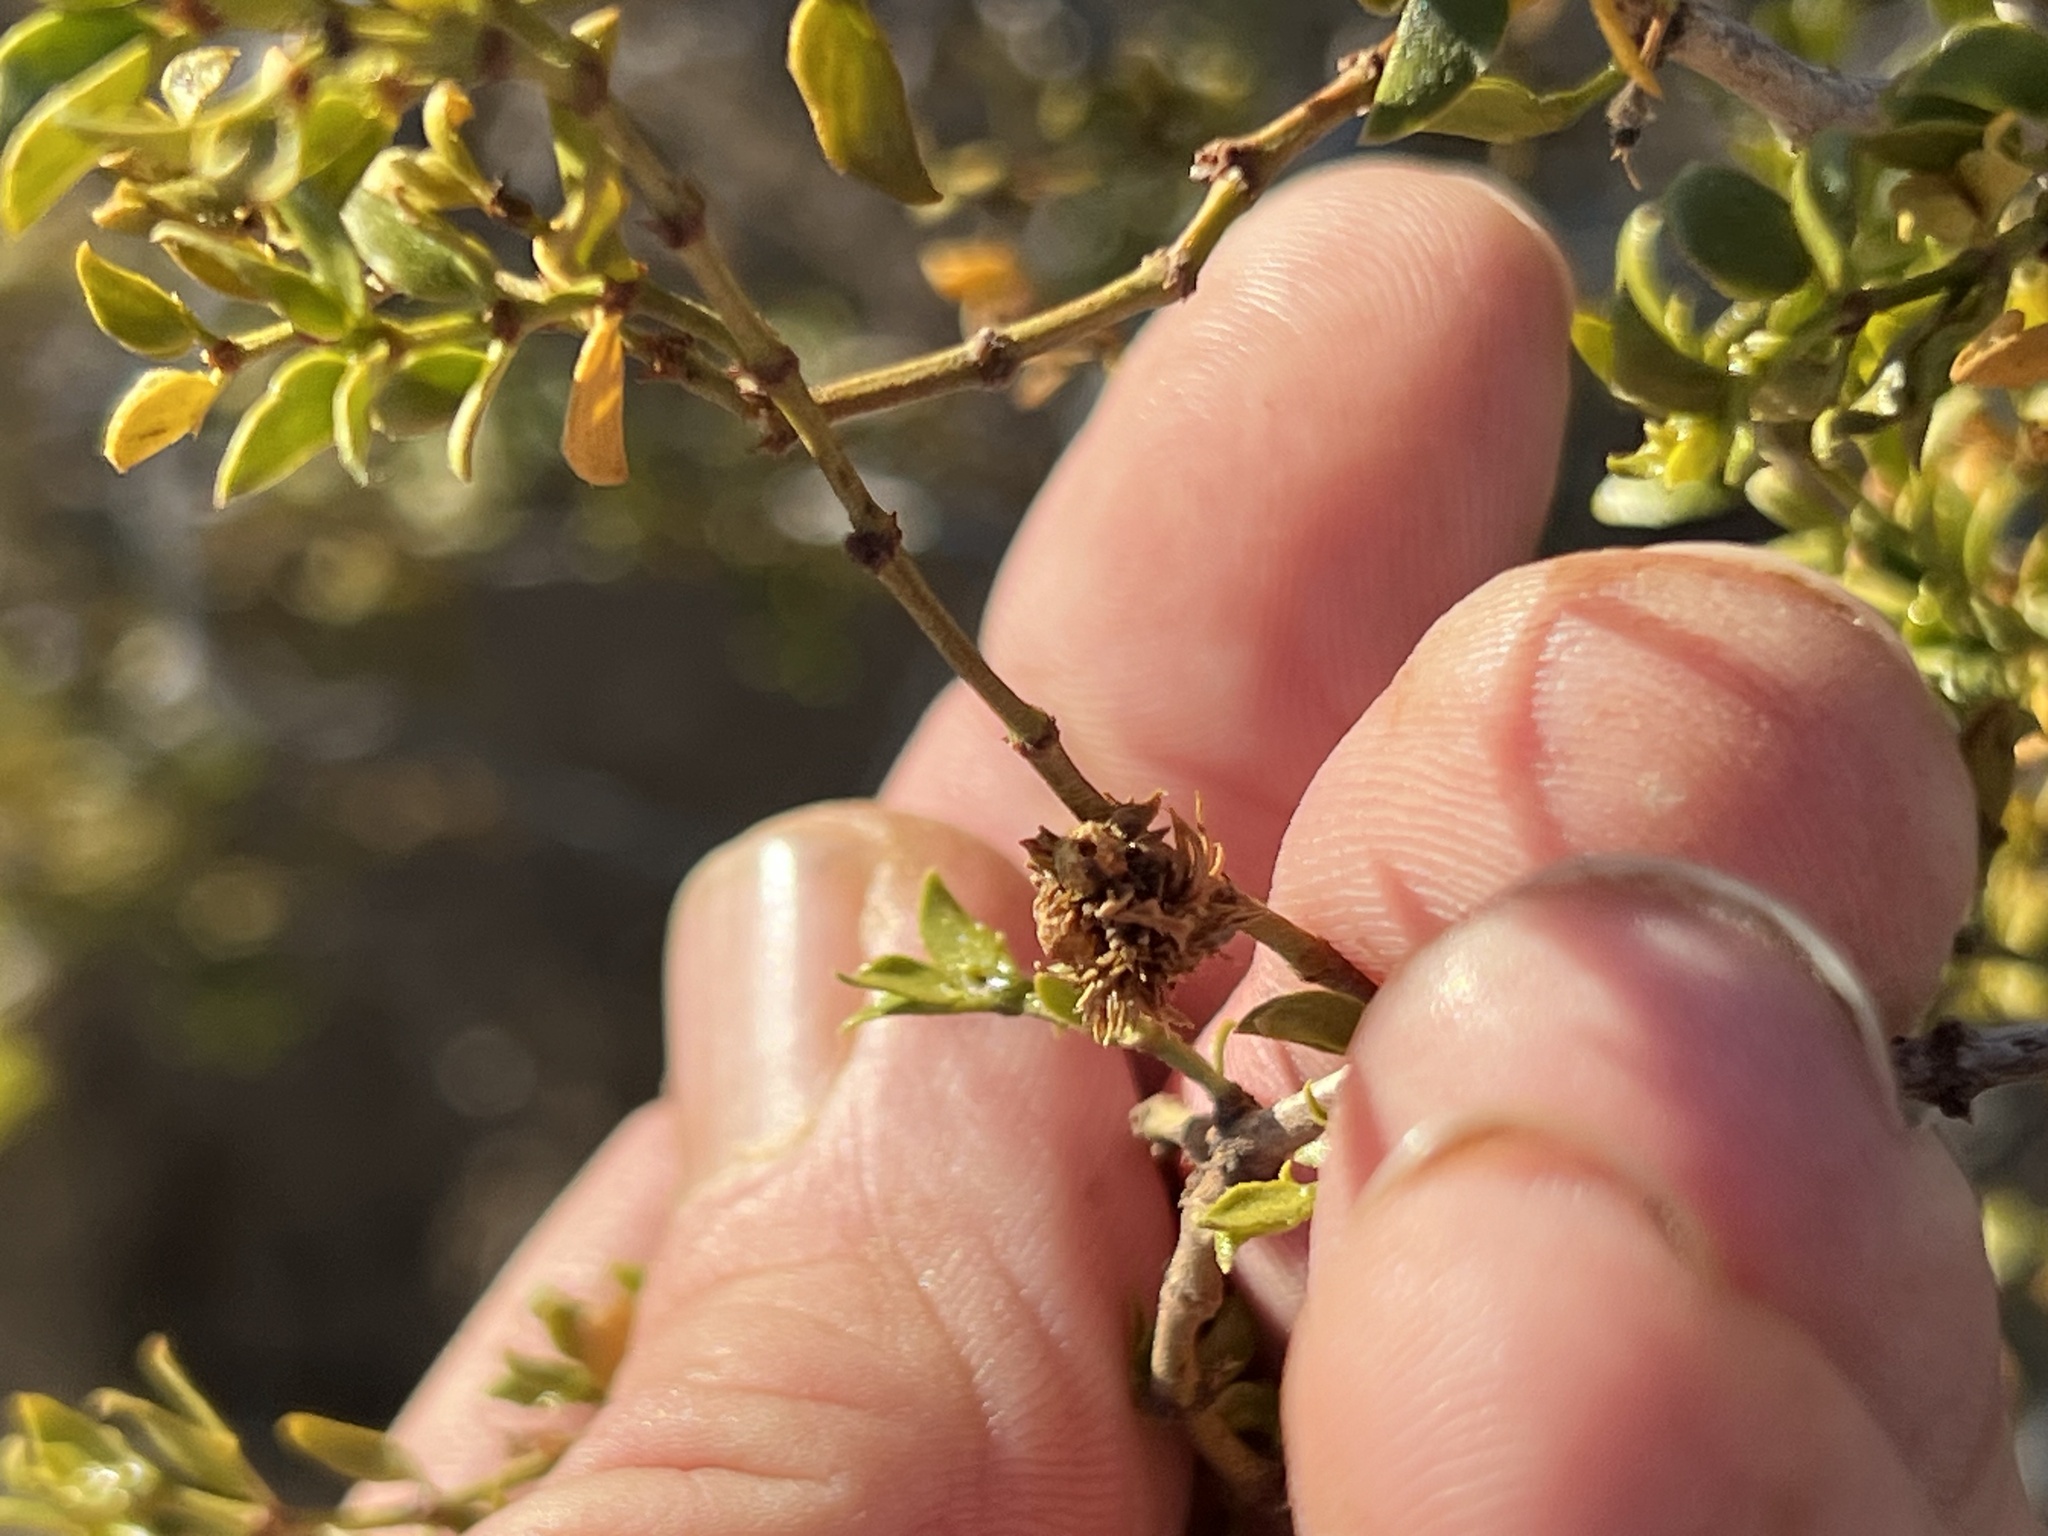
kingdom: Animalia
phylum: Arthropoda
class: Insecta
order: Diptera
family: Cecidomyiidae
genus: Asphondylia
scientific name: Asphondylia rosetta
